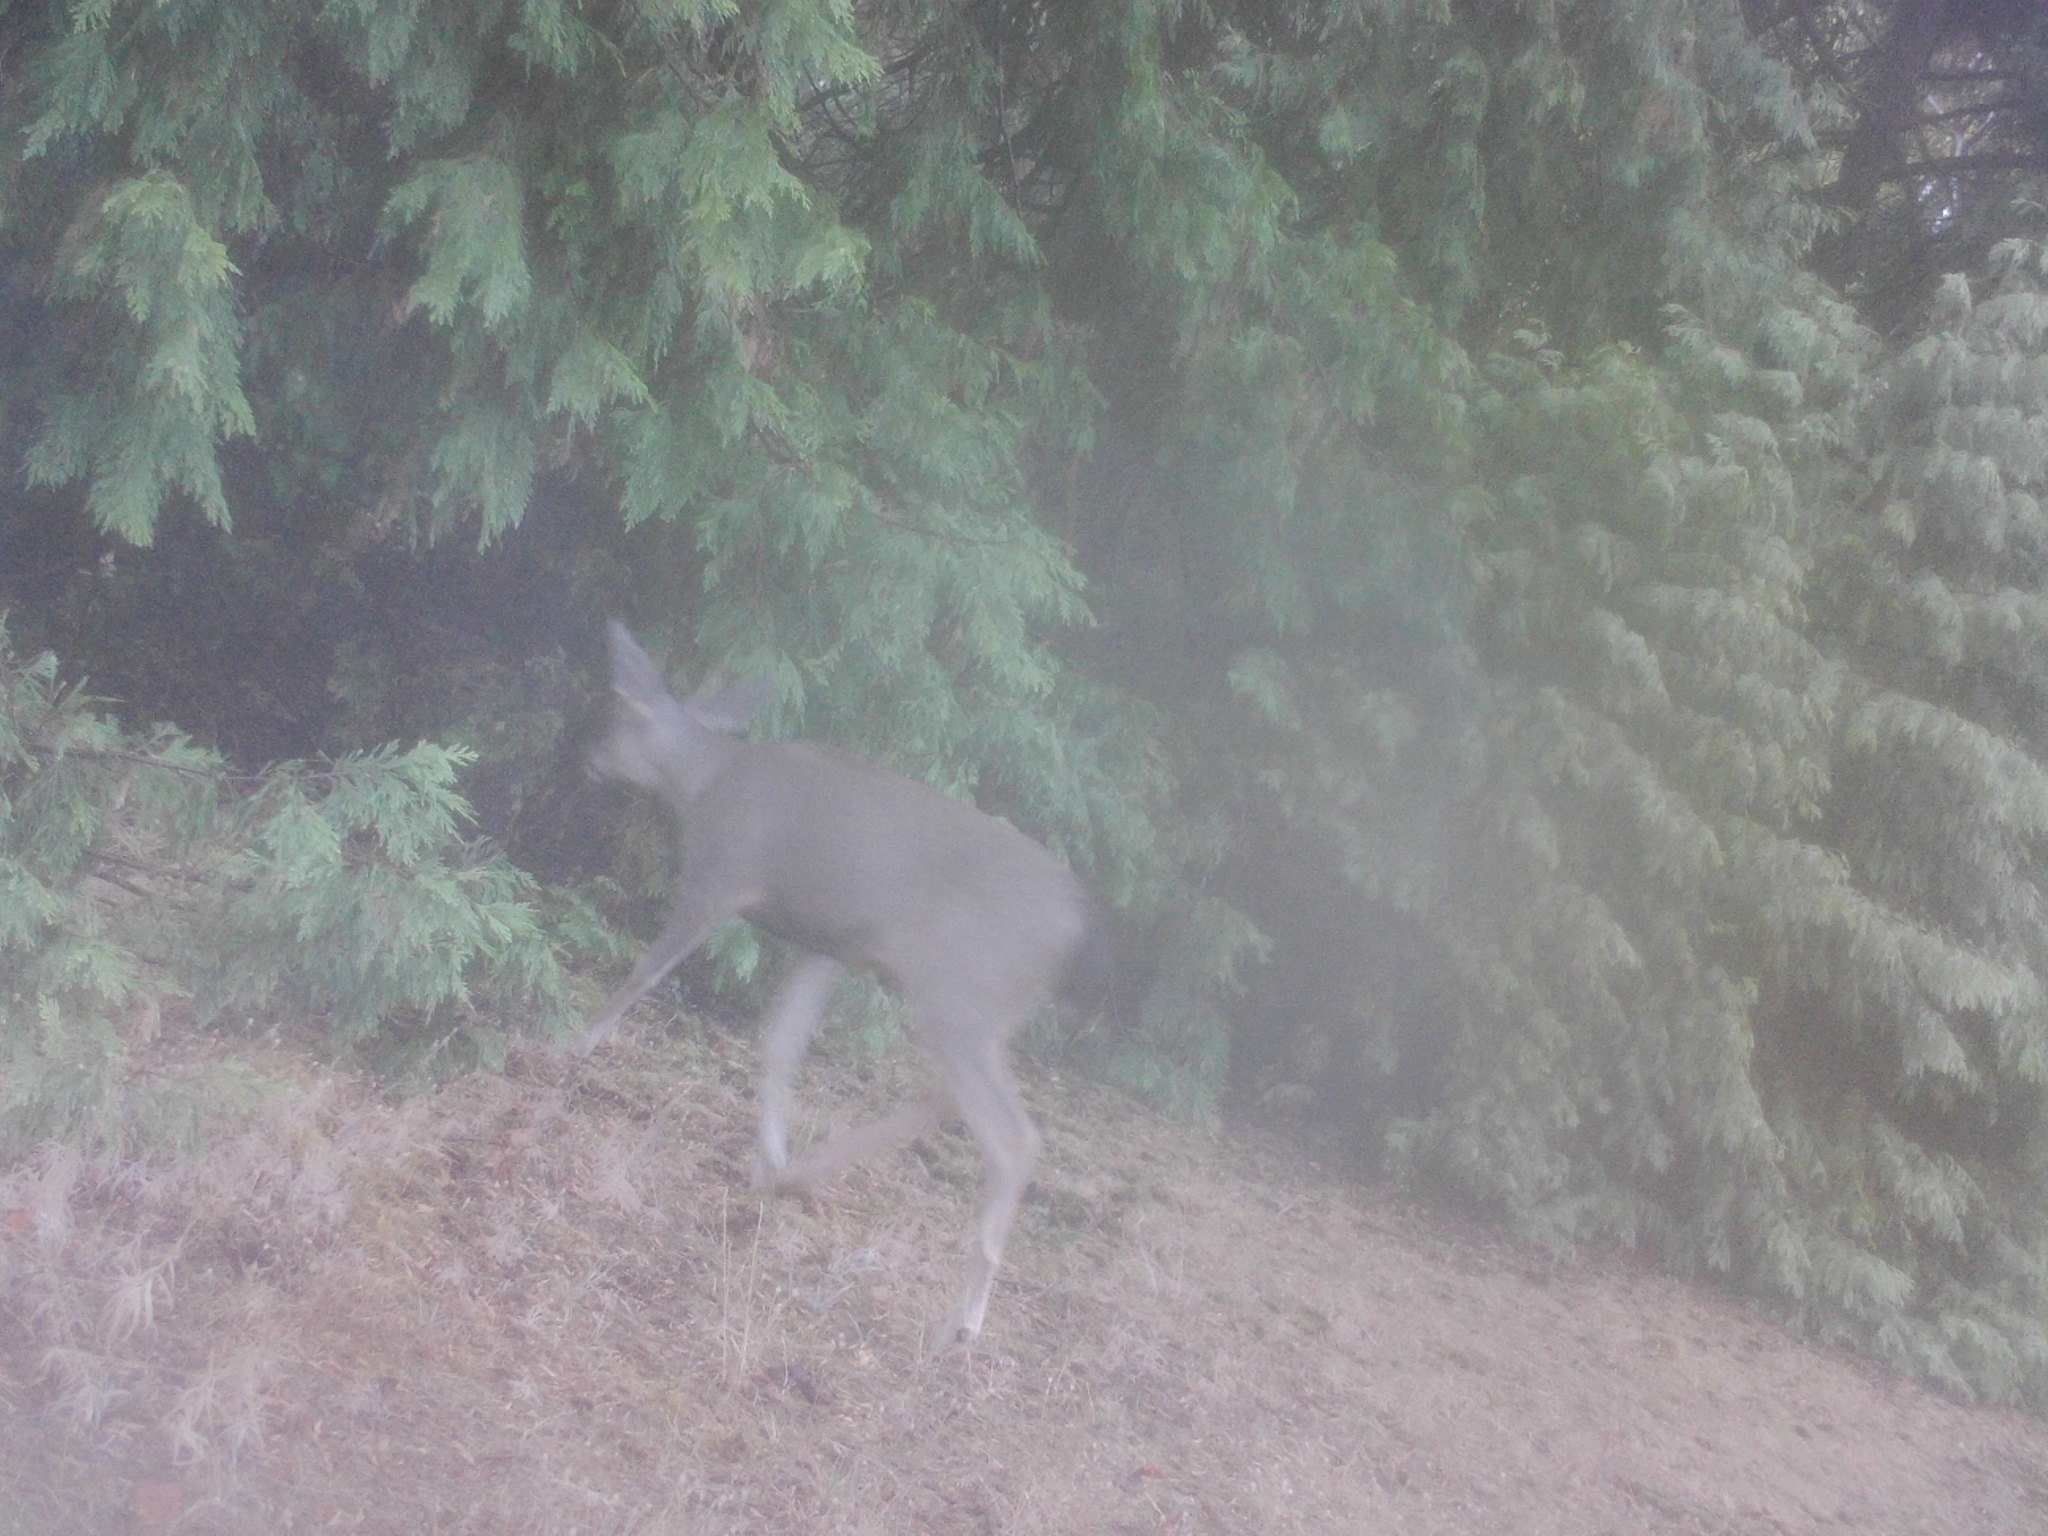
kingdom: Animalia
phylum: Chordata
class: Mammalia
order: Artiodactyla
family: Cervidae
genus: Odocoileus
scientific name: Odocoileus hemionus
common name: Mule deer
